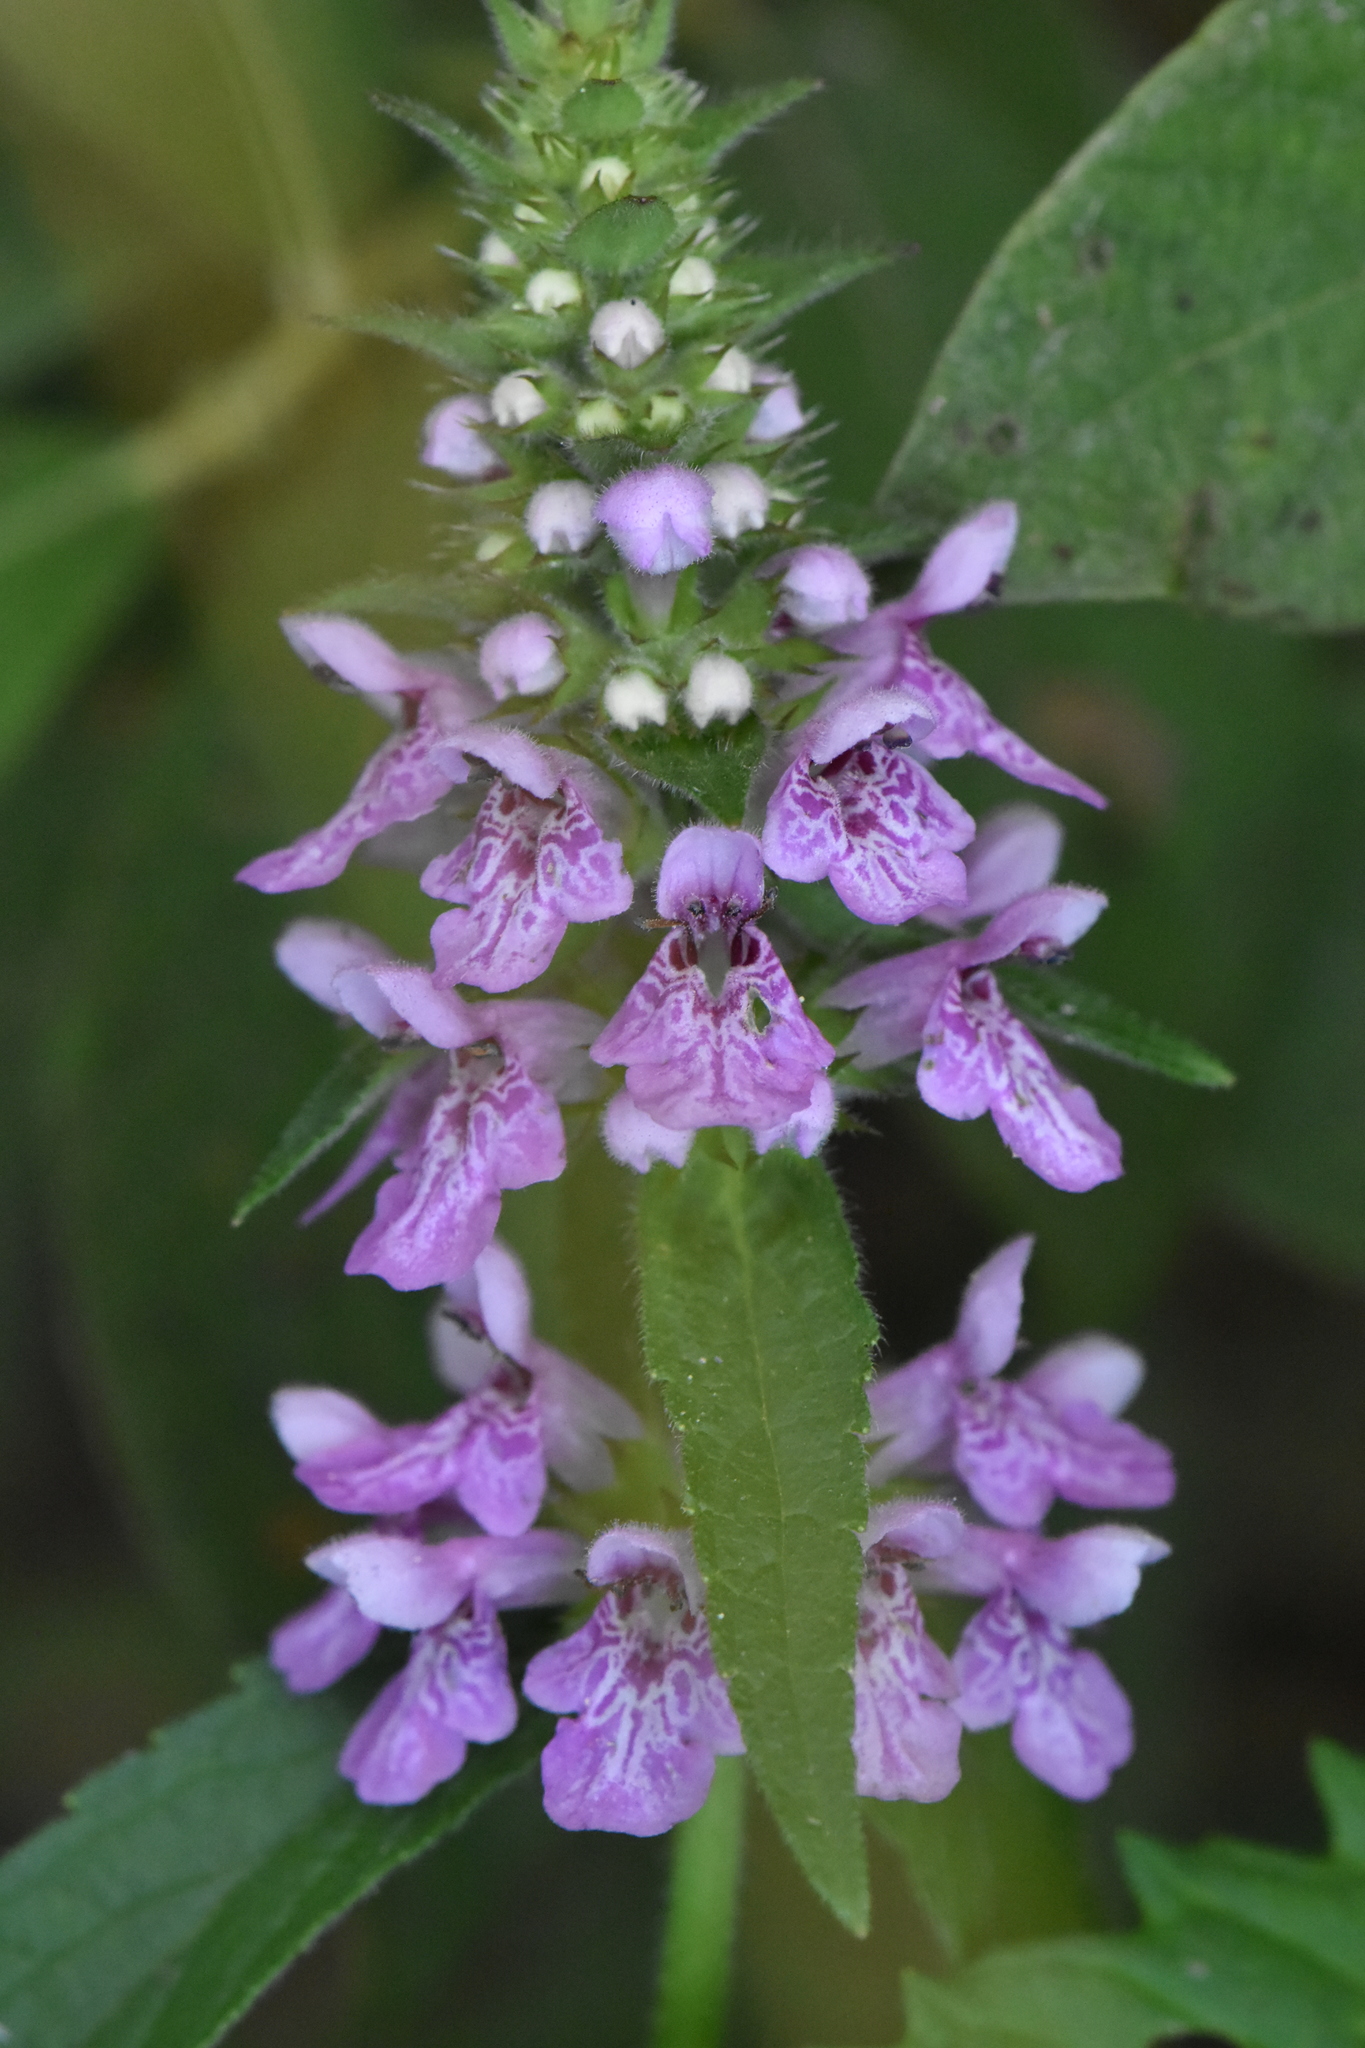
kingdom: Plantae
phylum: Tracheophyta
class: Magnoliopsida
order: Lamiales
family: Lamiaceae
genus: Stachys
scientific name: Stachys palustris
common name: Marsh woundwort
